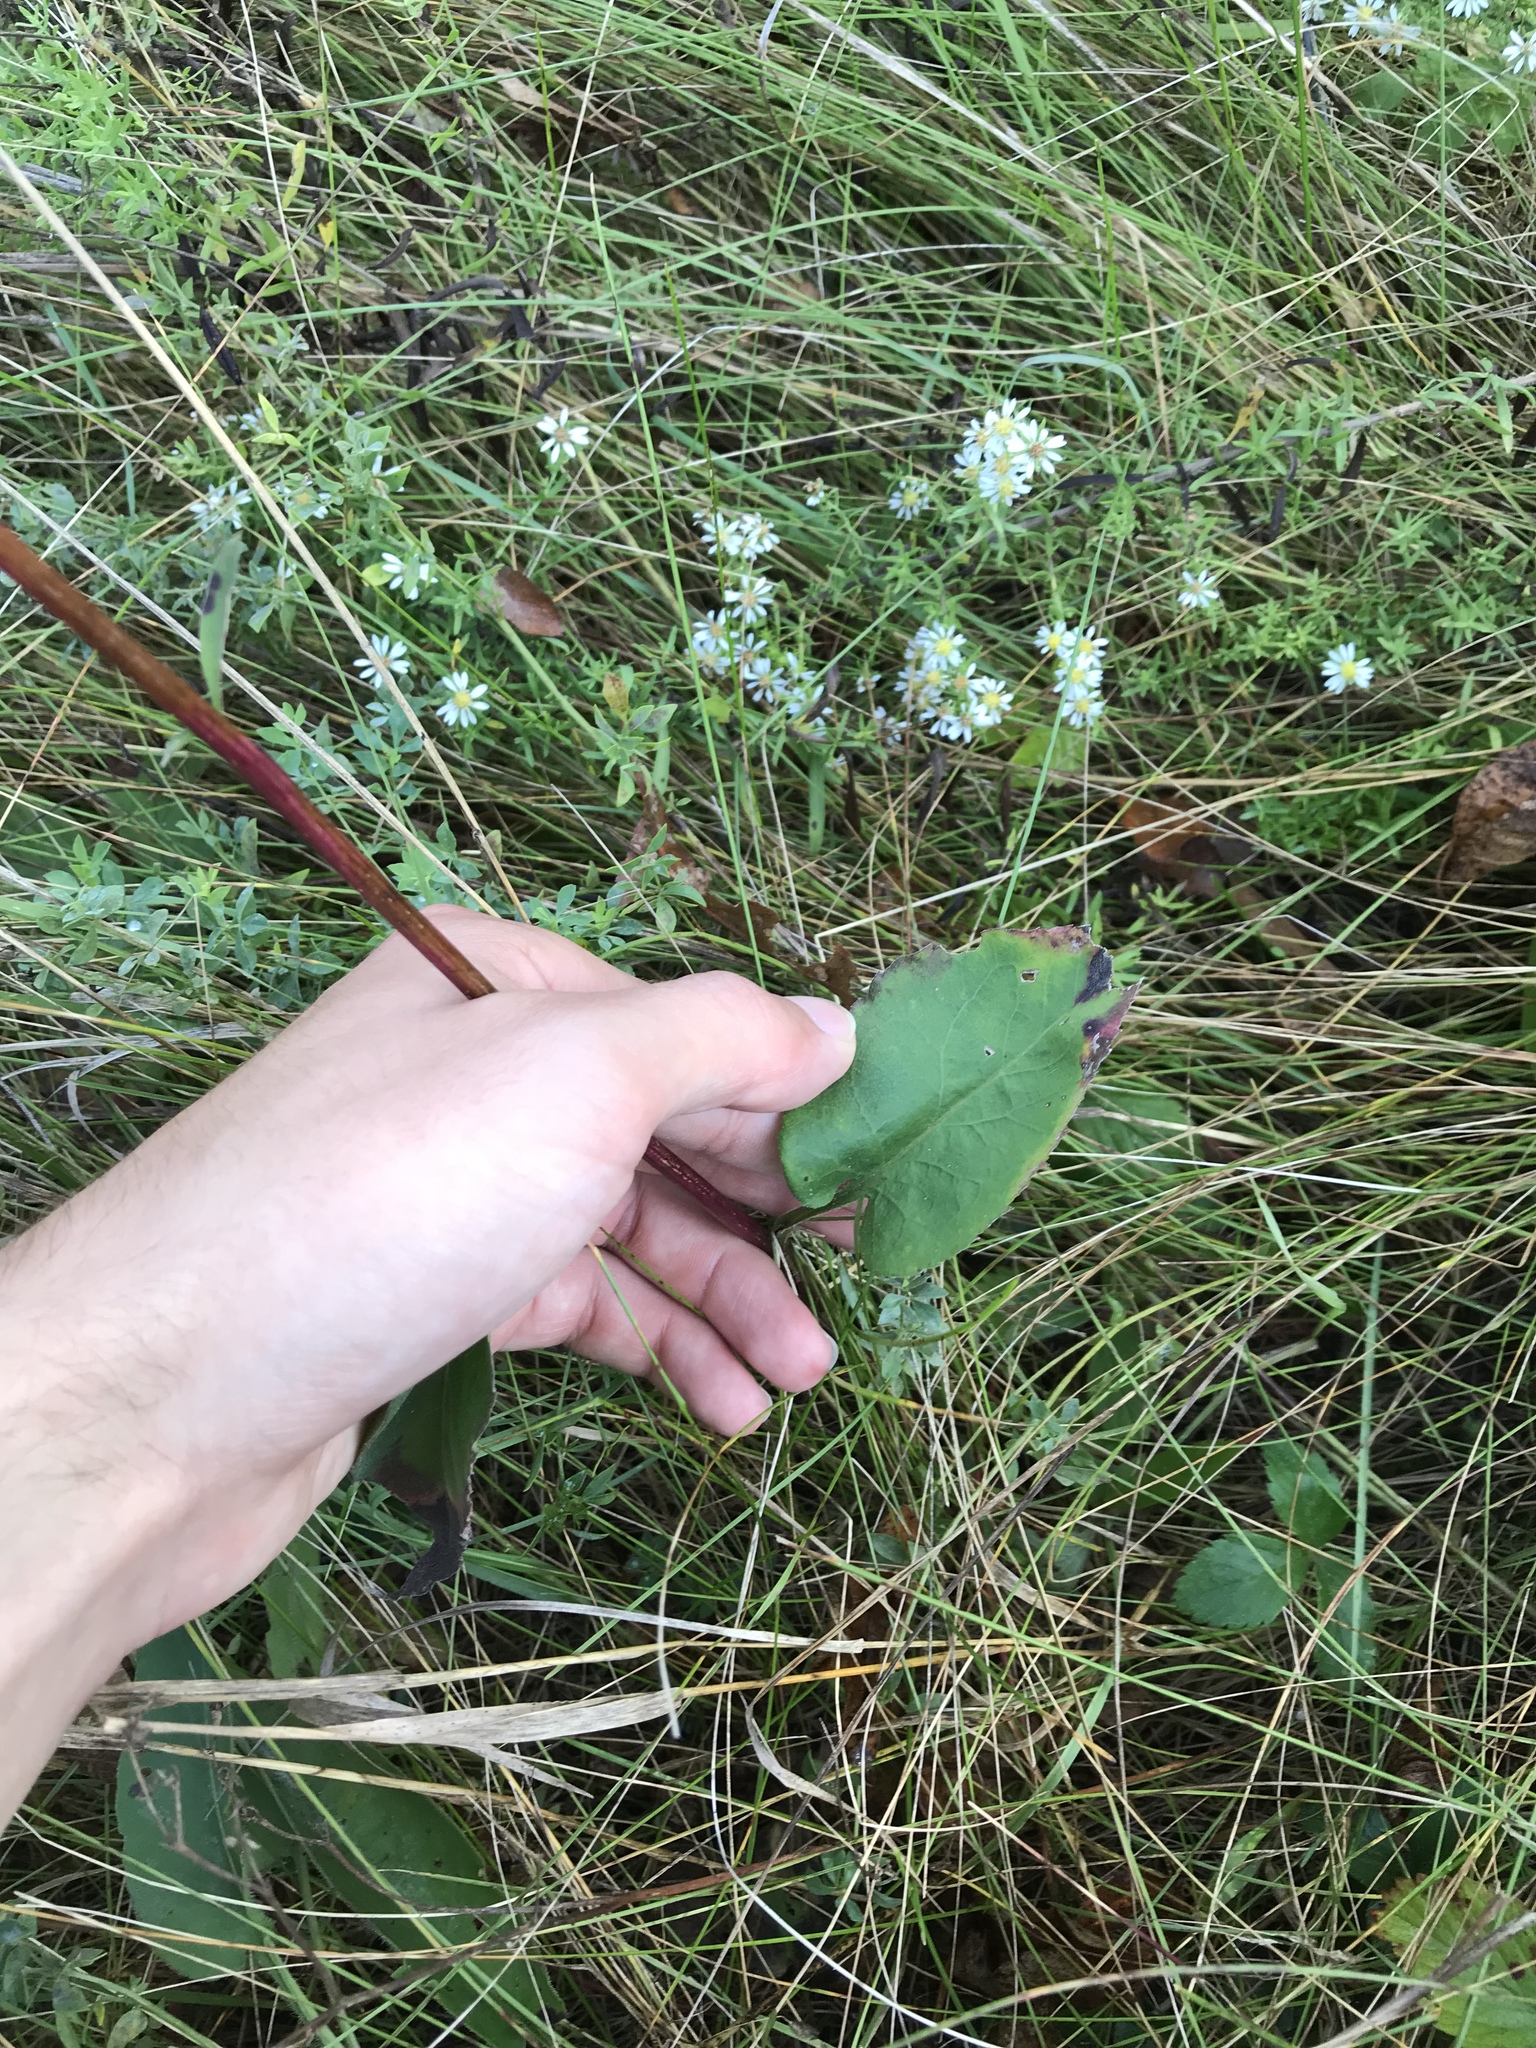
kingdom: Plantae
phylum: Tracheophyta
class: Magnoliopsida
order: Asterales
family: Asteraceae
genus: Symphyotrichum
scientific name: Symphyotrichum oolentangiense
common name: Azure aster
